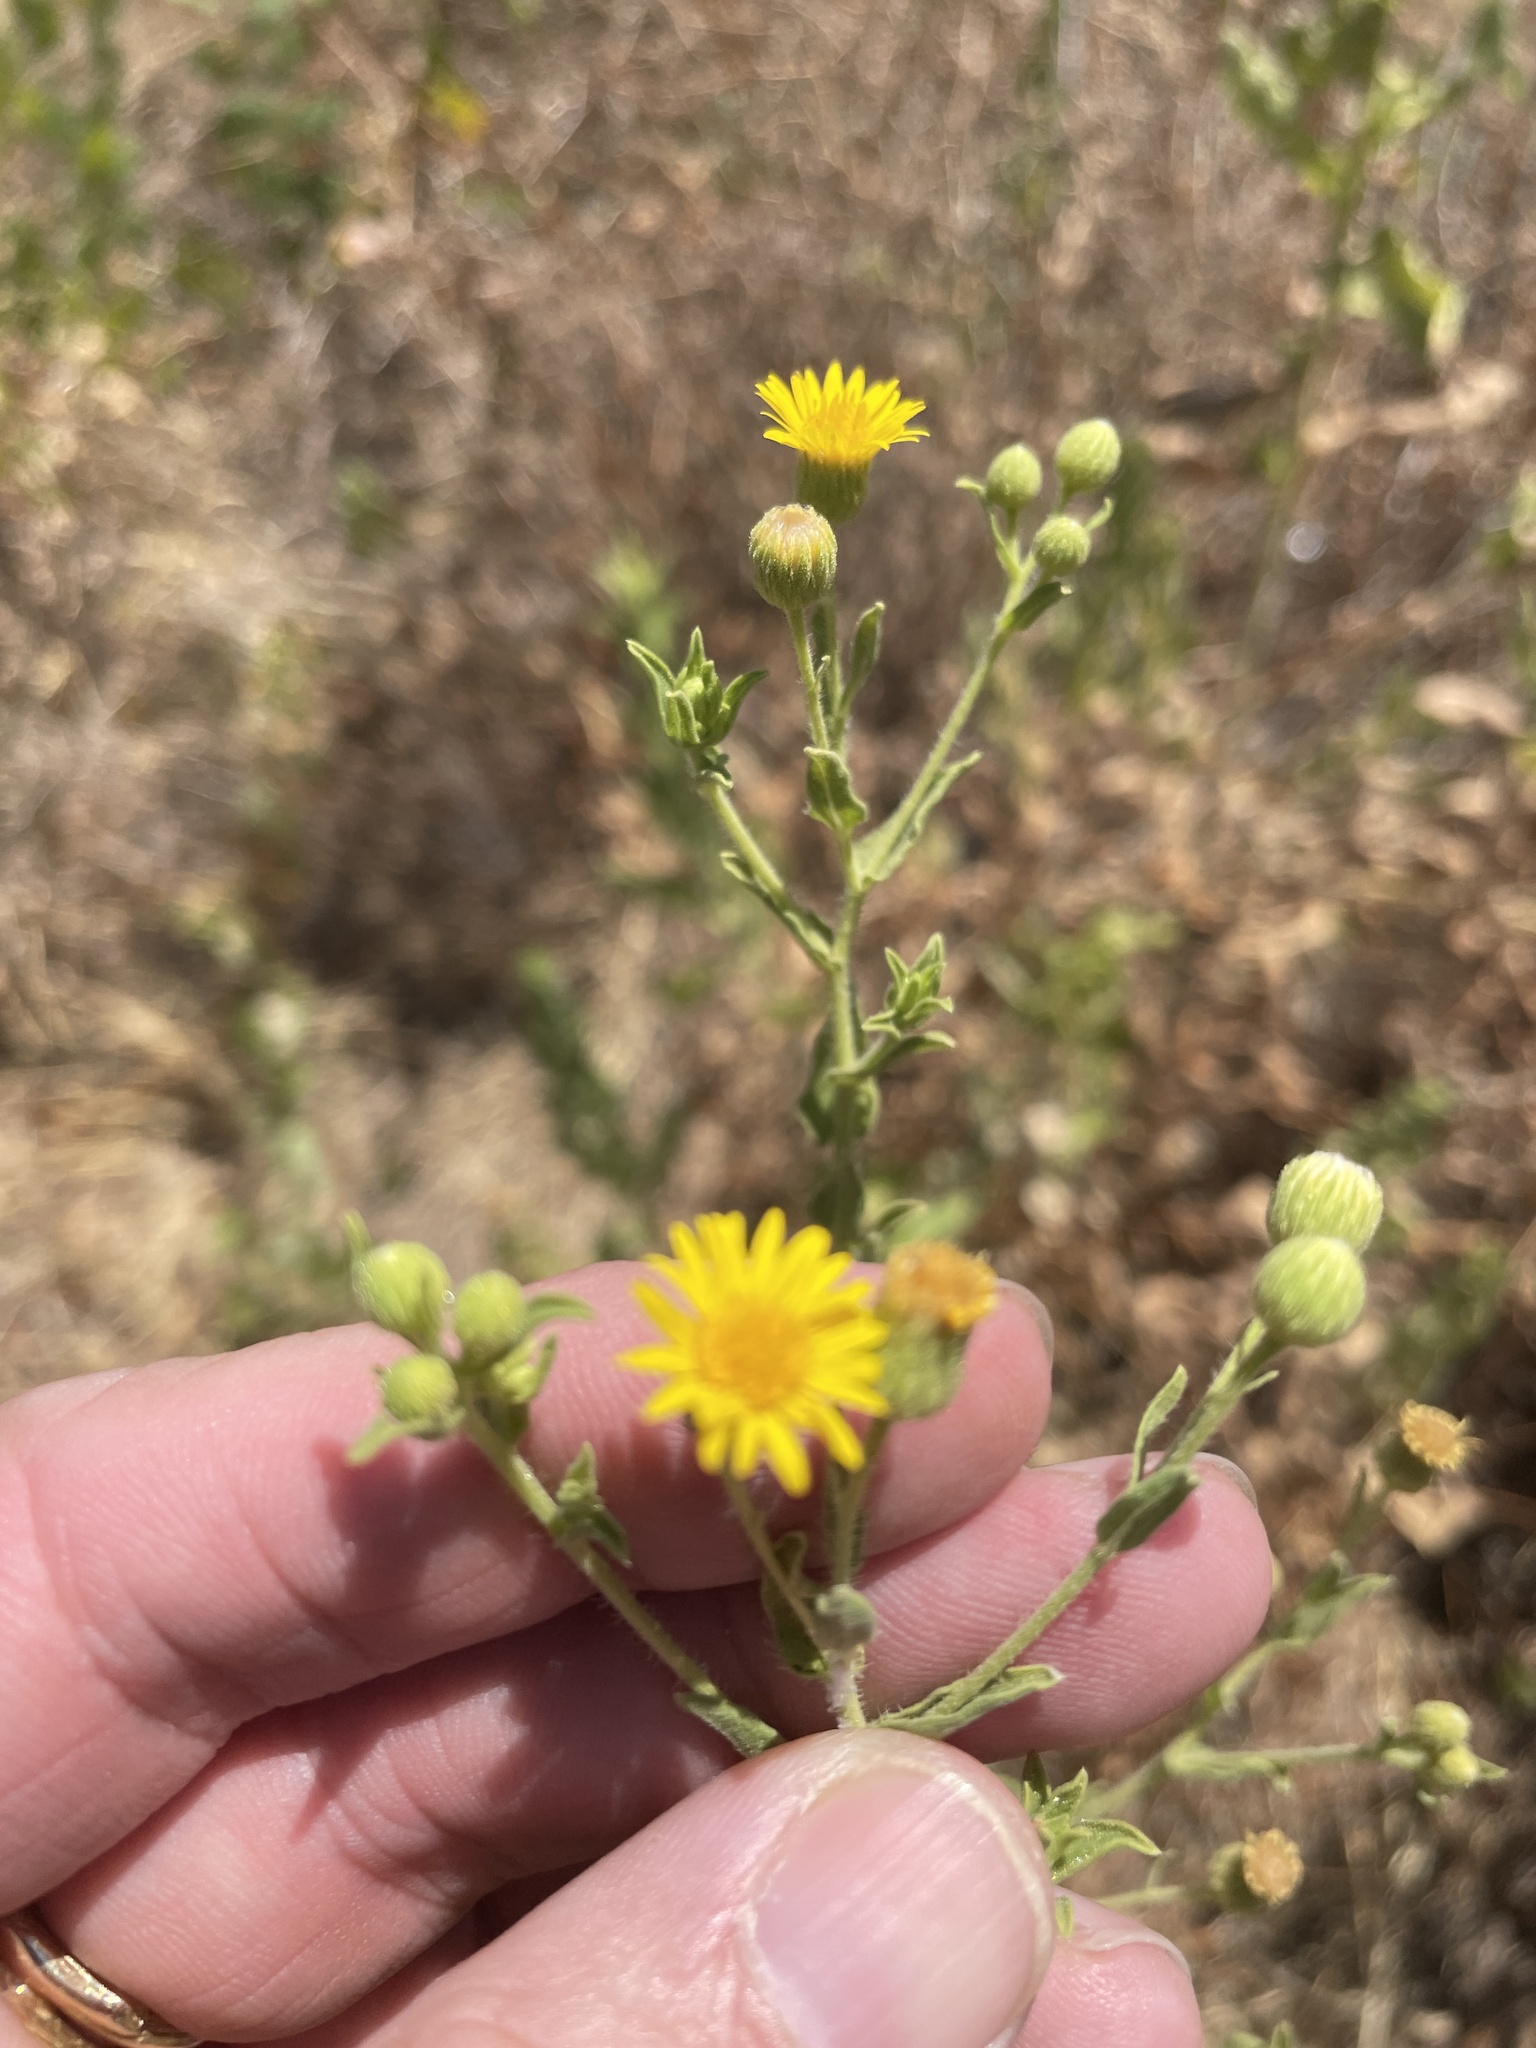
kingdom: Plantae
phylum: Tracheophyta
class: Magnoliopsida
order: Asterales
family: Asteraceae
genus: Heterotheca
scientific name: Heterotheca subaxillaris
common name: Camphorweed
